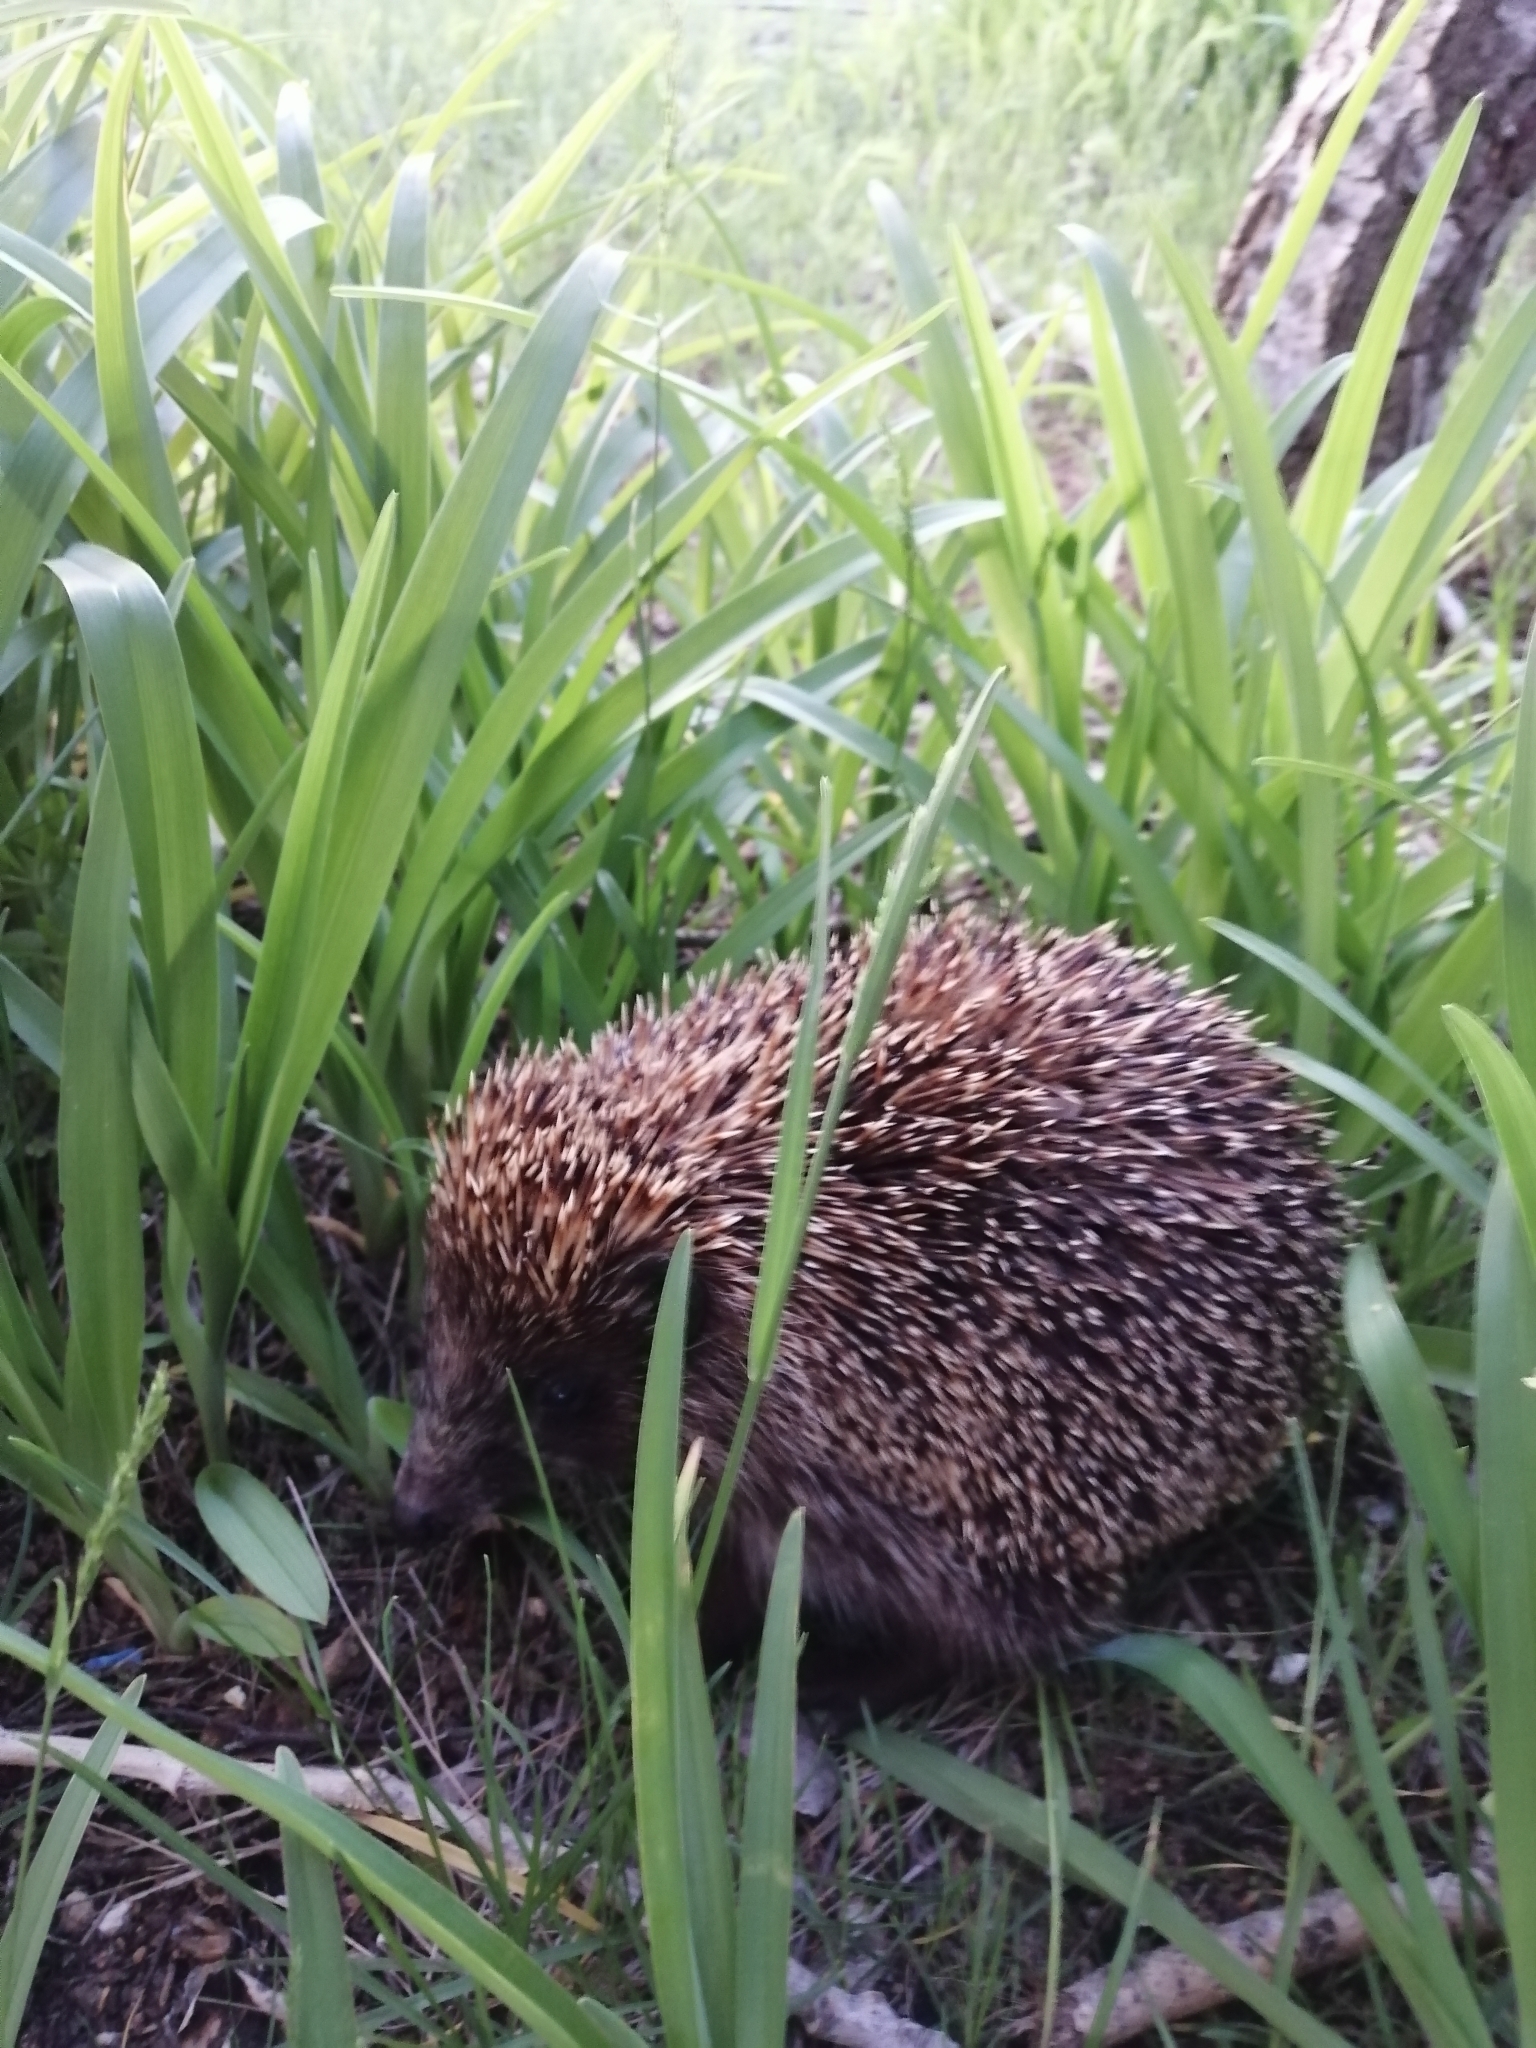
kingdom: Animalia
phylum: Chordata
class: Mammalia
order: Erinaceomorpha
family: Erinaceidae
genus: Erinaceus
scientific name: Erinaceus roumanicus
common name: Northern white-breasted hedgehog
